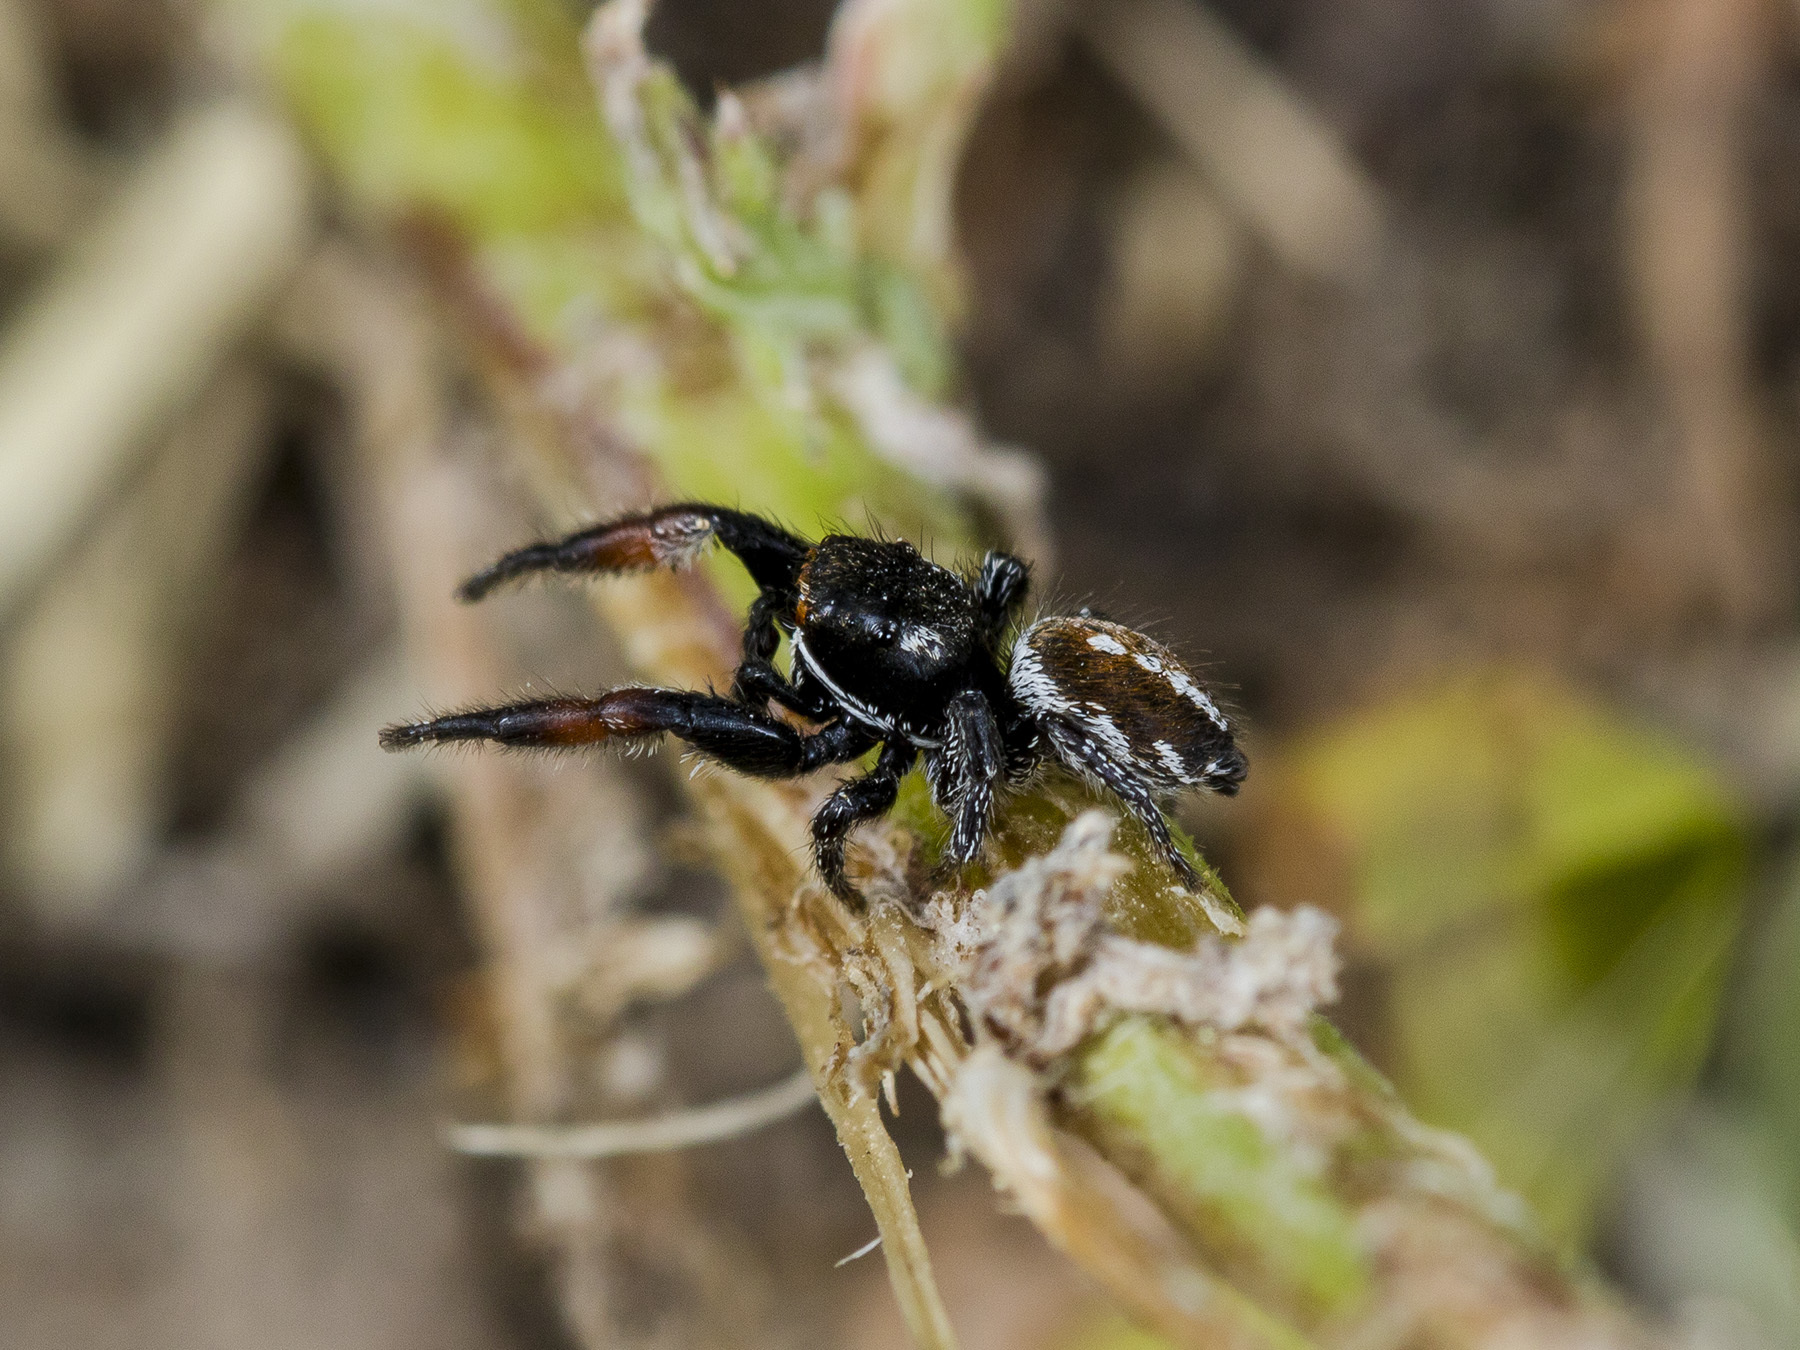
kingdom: Animalia
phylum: Arthropoda
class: Arachnida
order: Araneae
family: Salticidae
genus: Pellenes
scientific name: Pellenes allegrii
